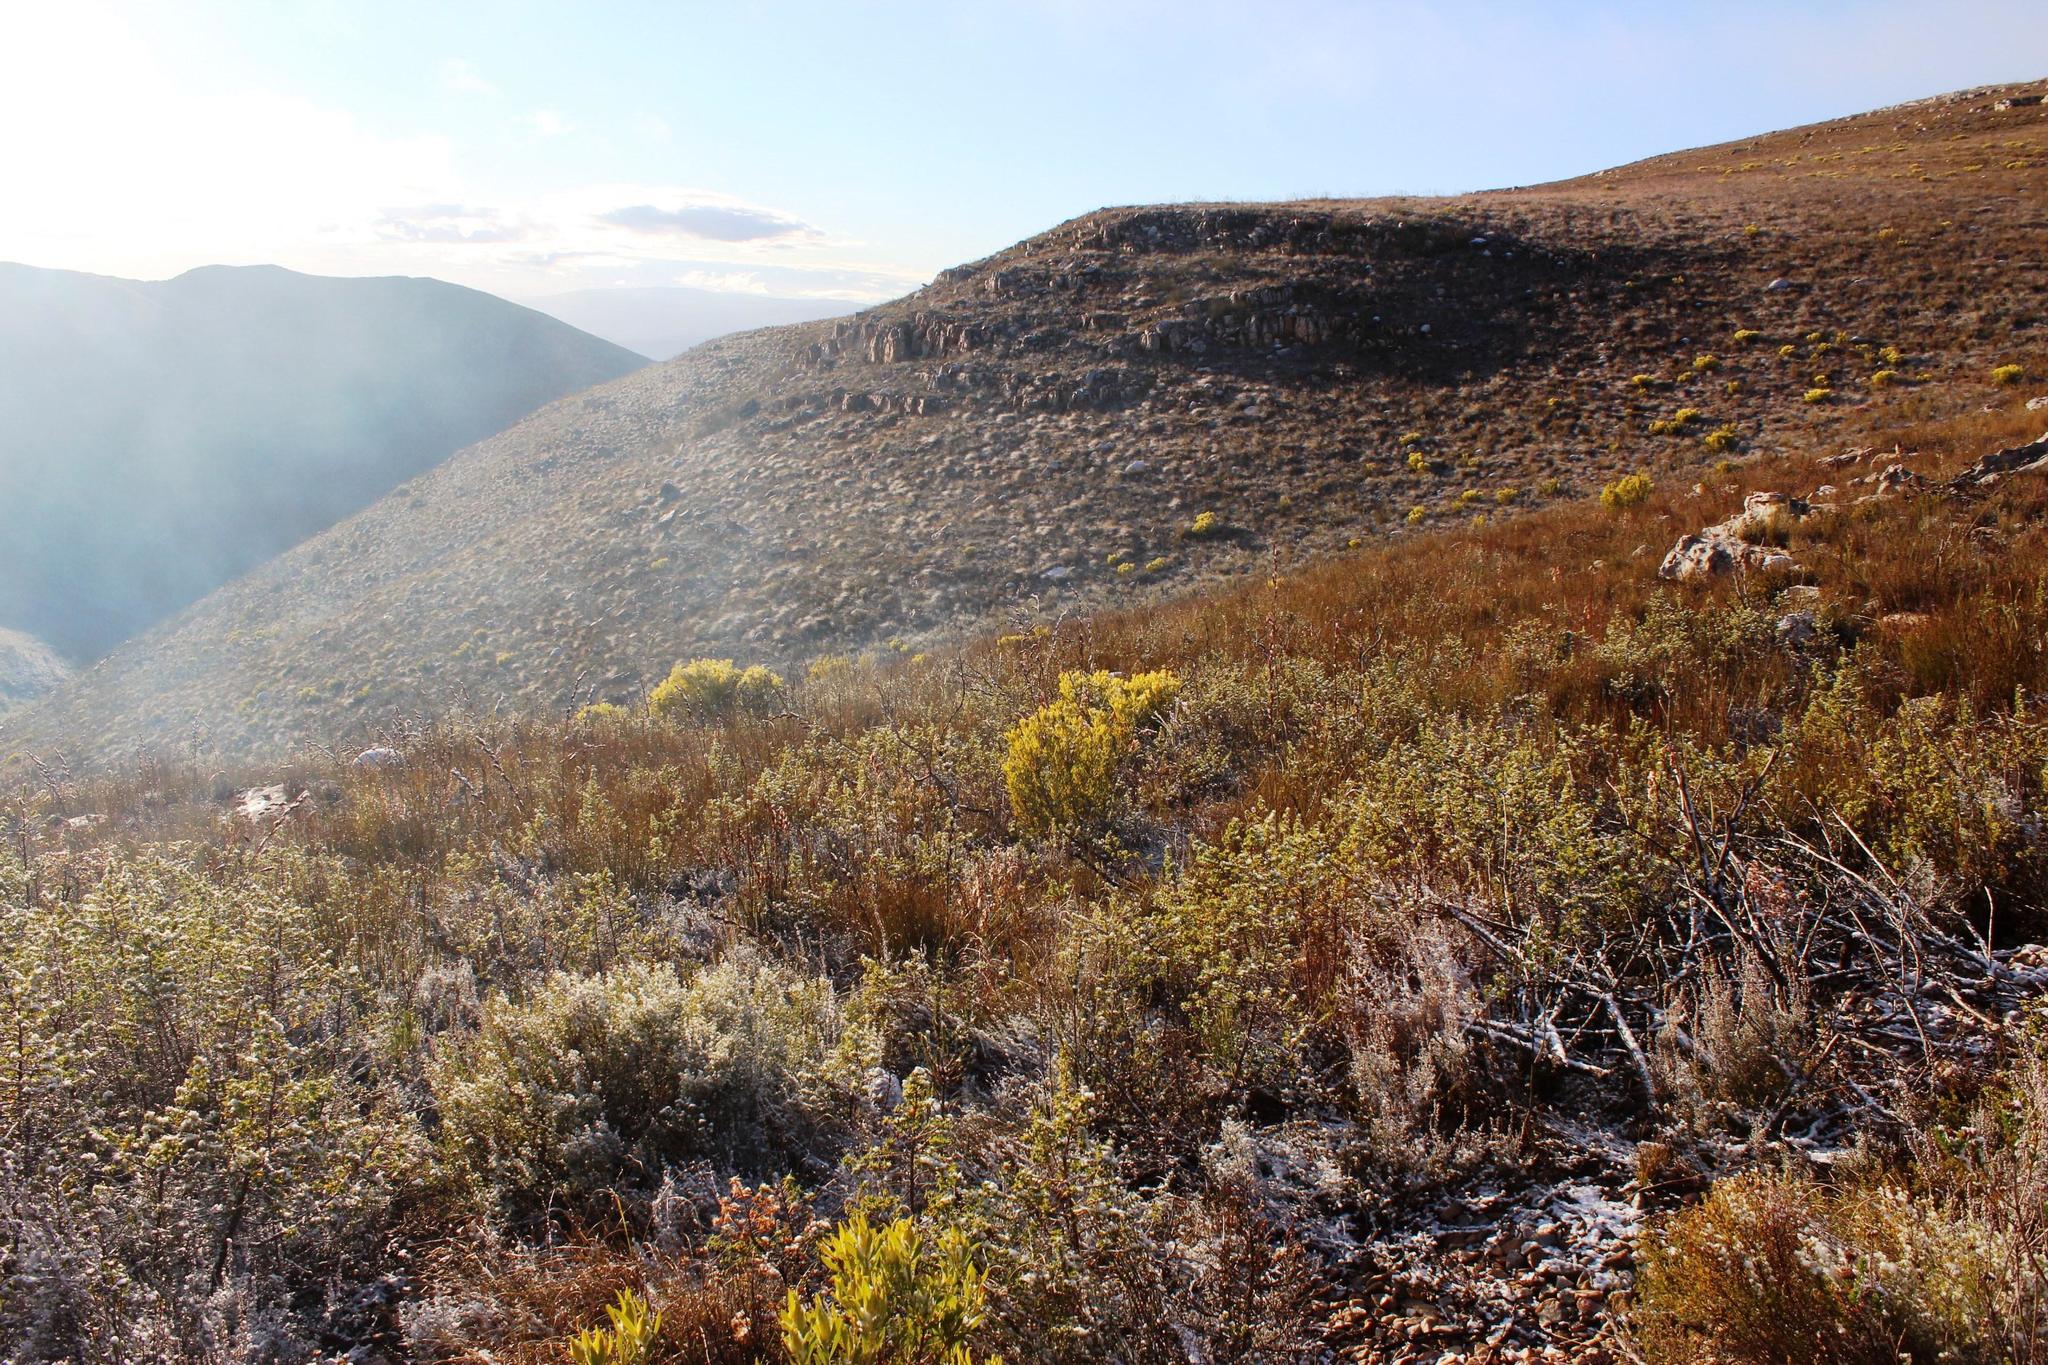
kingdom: Plantae
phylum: Tracheophyta
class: Magnoliopsida
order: Proteales
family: Proteaceae
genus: Leucadendron
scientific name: Leucadendron salignum
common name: Common sunshine conebush
